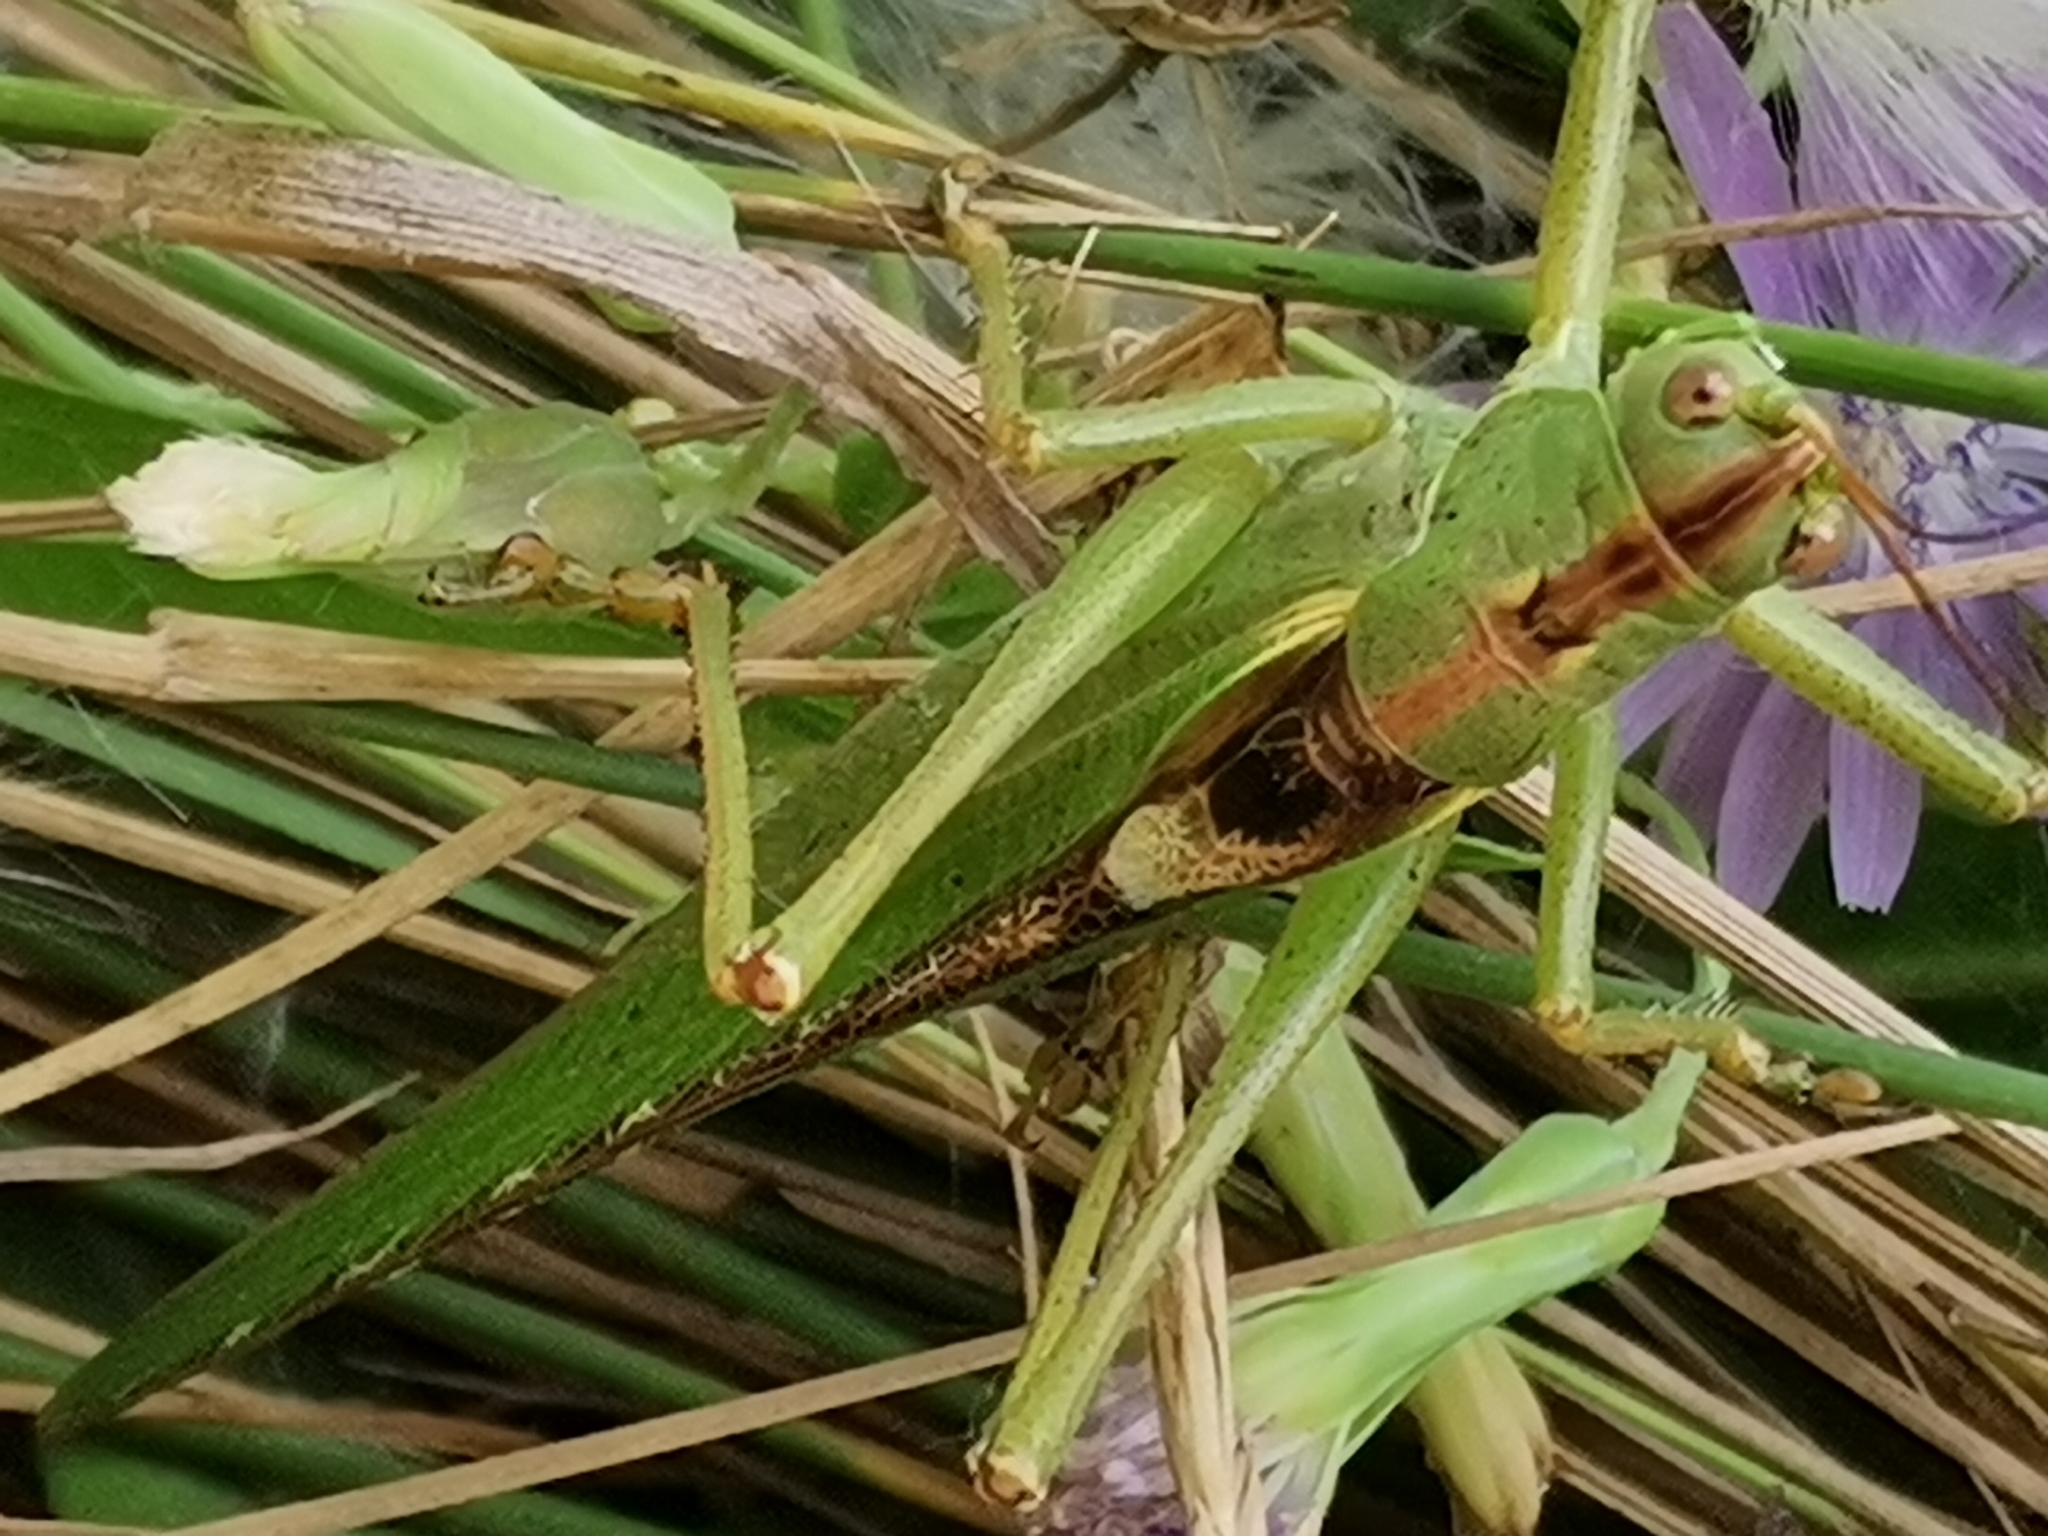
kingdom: Animalia
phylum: Arthropoda
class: Insecta
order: Orthoptera
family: Tettigoniidae
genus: Tettigonia
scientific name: Tettigonia viridissima
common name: Great green bush-cricket
